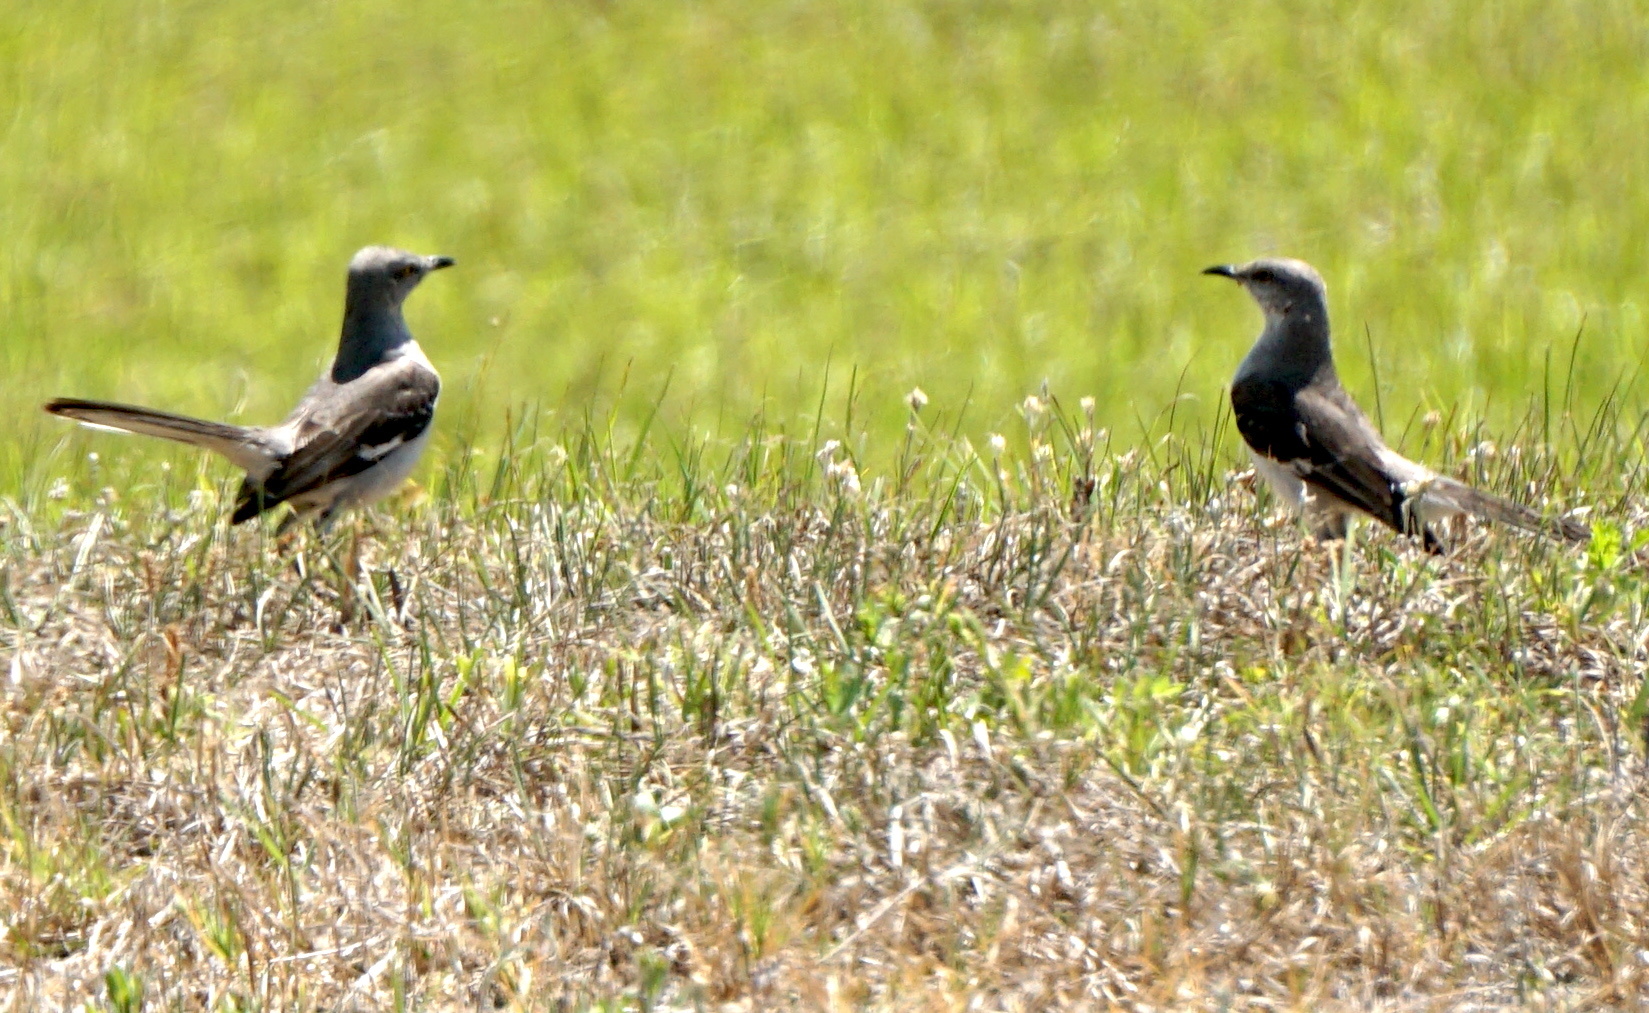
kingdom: Animalia
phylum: Chordata
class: Aves
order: Passeriformes
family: Mimidae
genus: Mimus
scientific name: Mimus polyglottos
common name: Northern mockingbird
